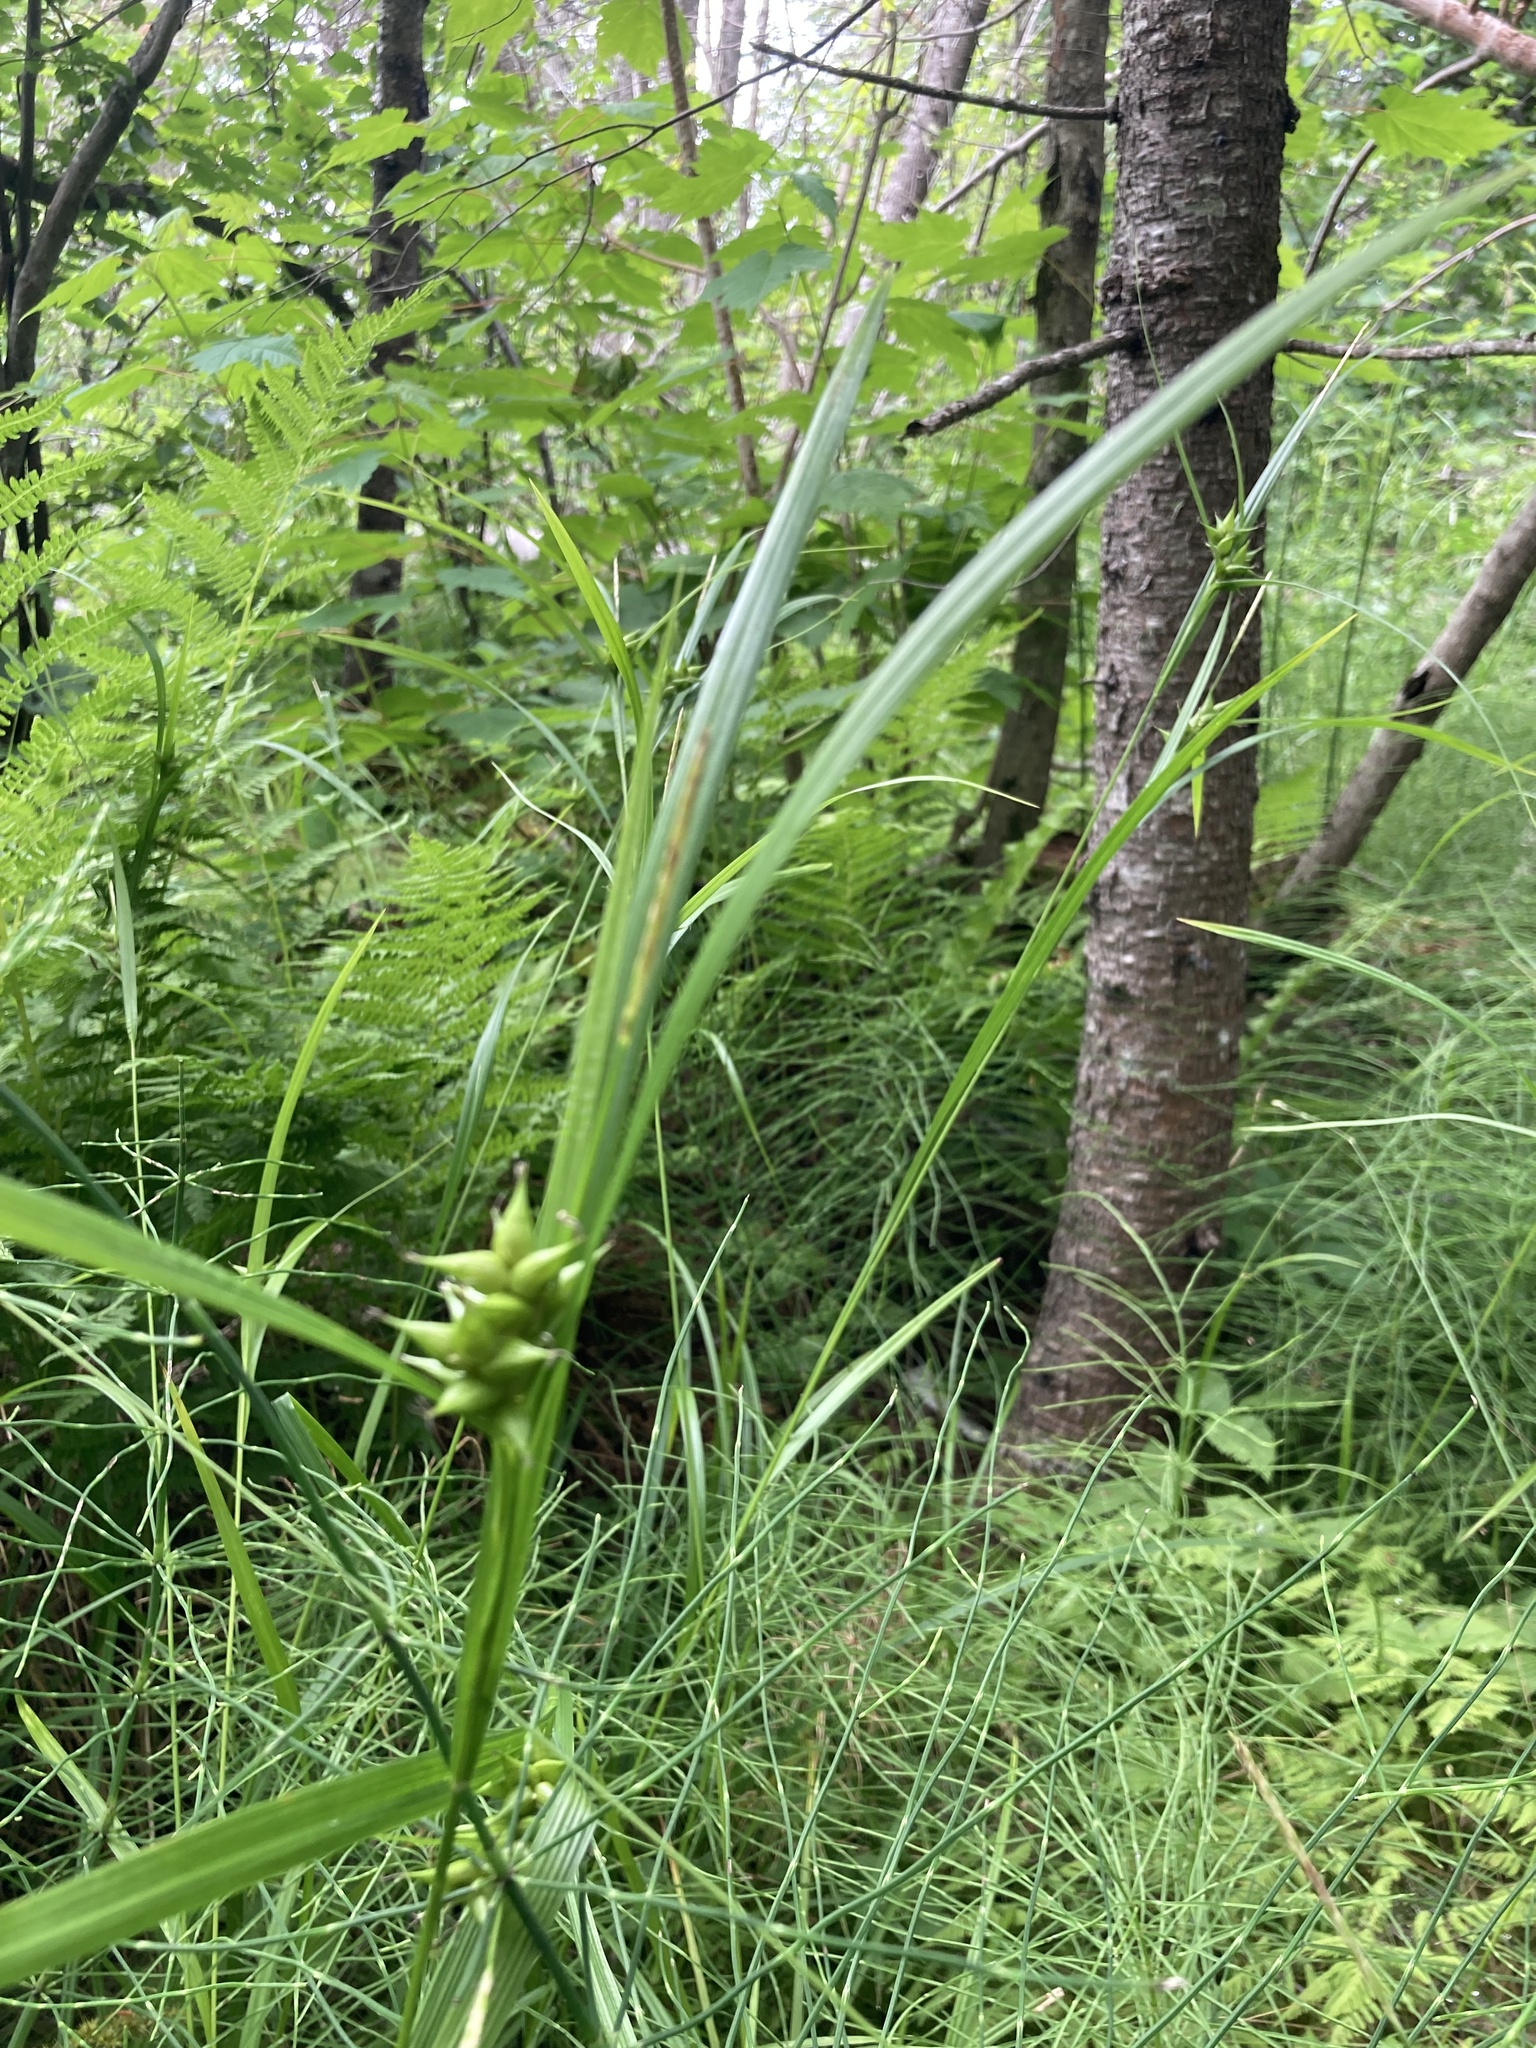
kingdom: Plantae
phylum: Tracheophyta
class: Liliopsida
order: Poales
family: Cyperaceae
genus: Carex
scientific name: Carex intumescens
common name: Greater bladder sedge
